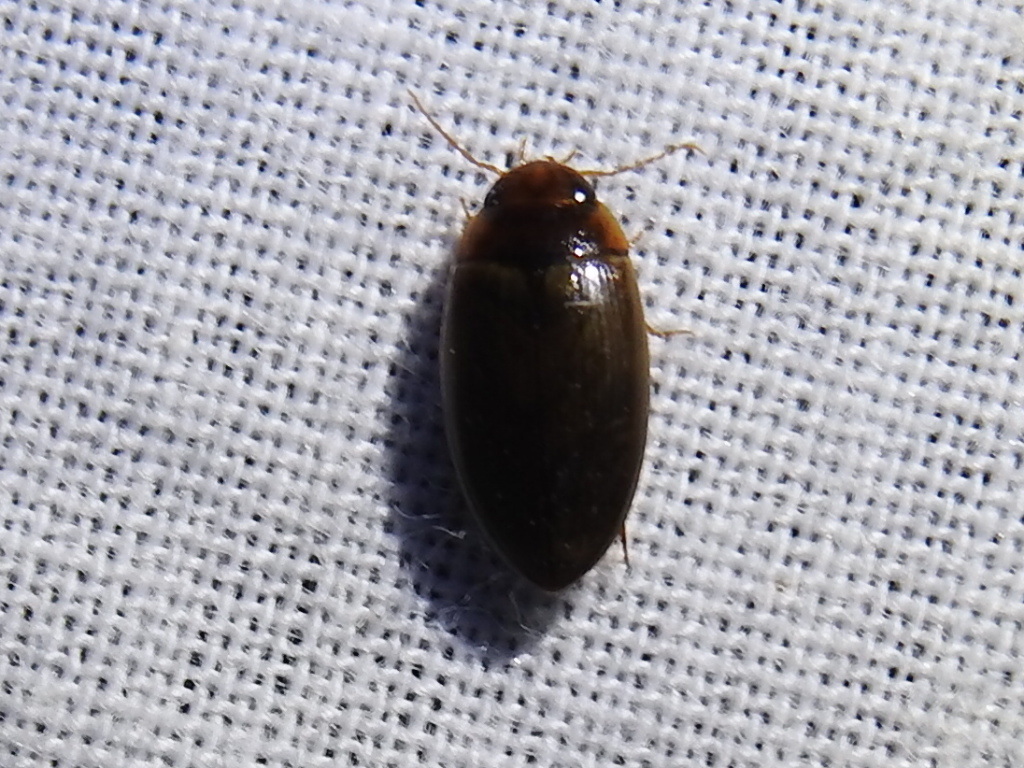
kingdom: Animalia
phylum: Arthropoda
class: Insecta
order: Coleoptera
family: Dytiscidae
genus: Copelatus
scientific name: Copelatus chevrolati
